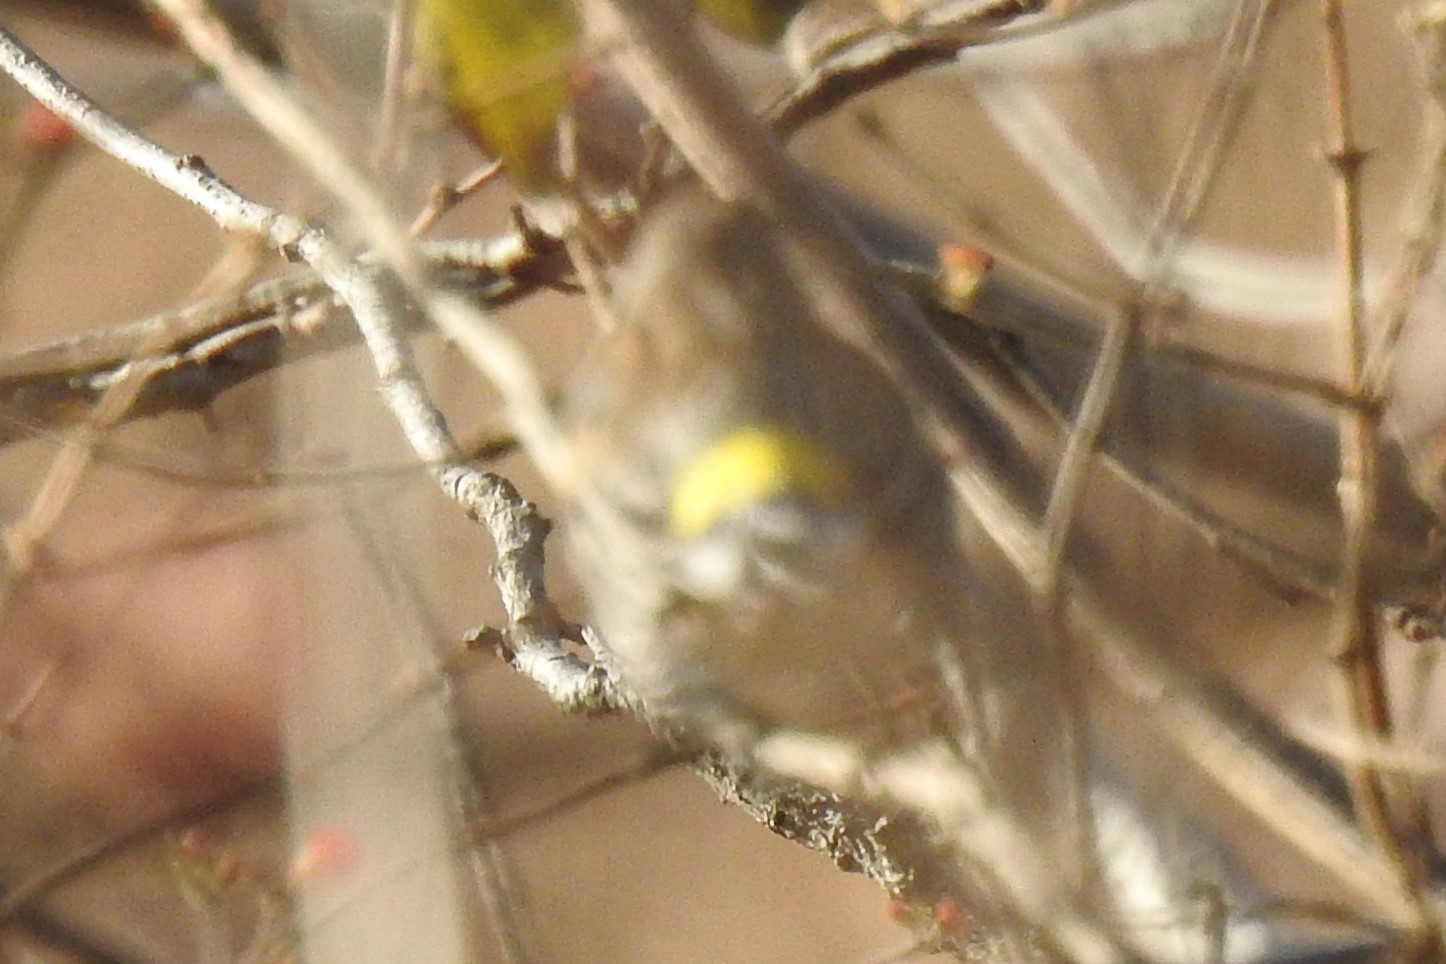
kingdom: Animalia
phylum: Chordata
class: Aves
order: Passeriformes
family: Parulidae
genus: Setophaga
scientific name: Setophaga coronata
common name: Myrtle warbler
